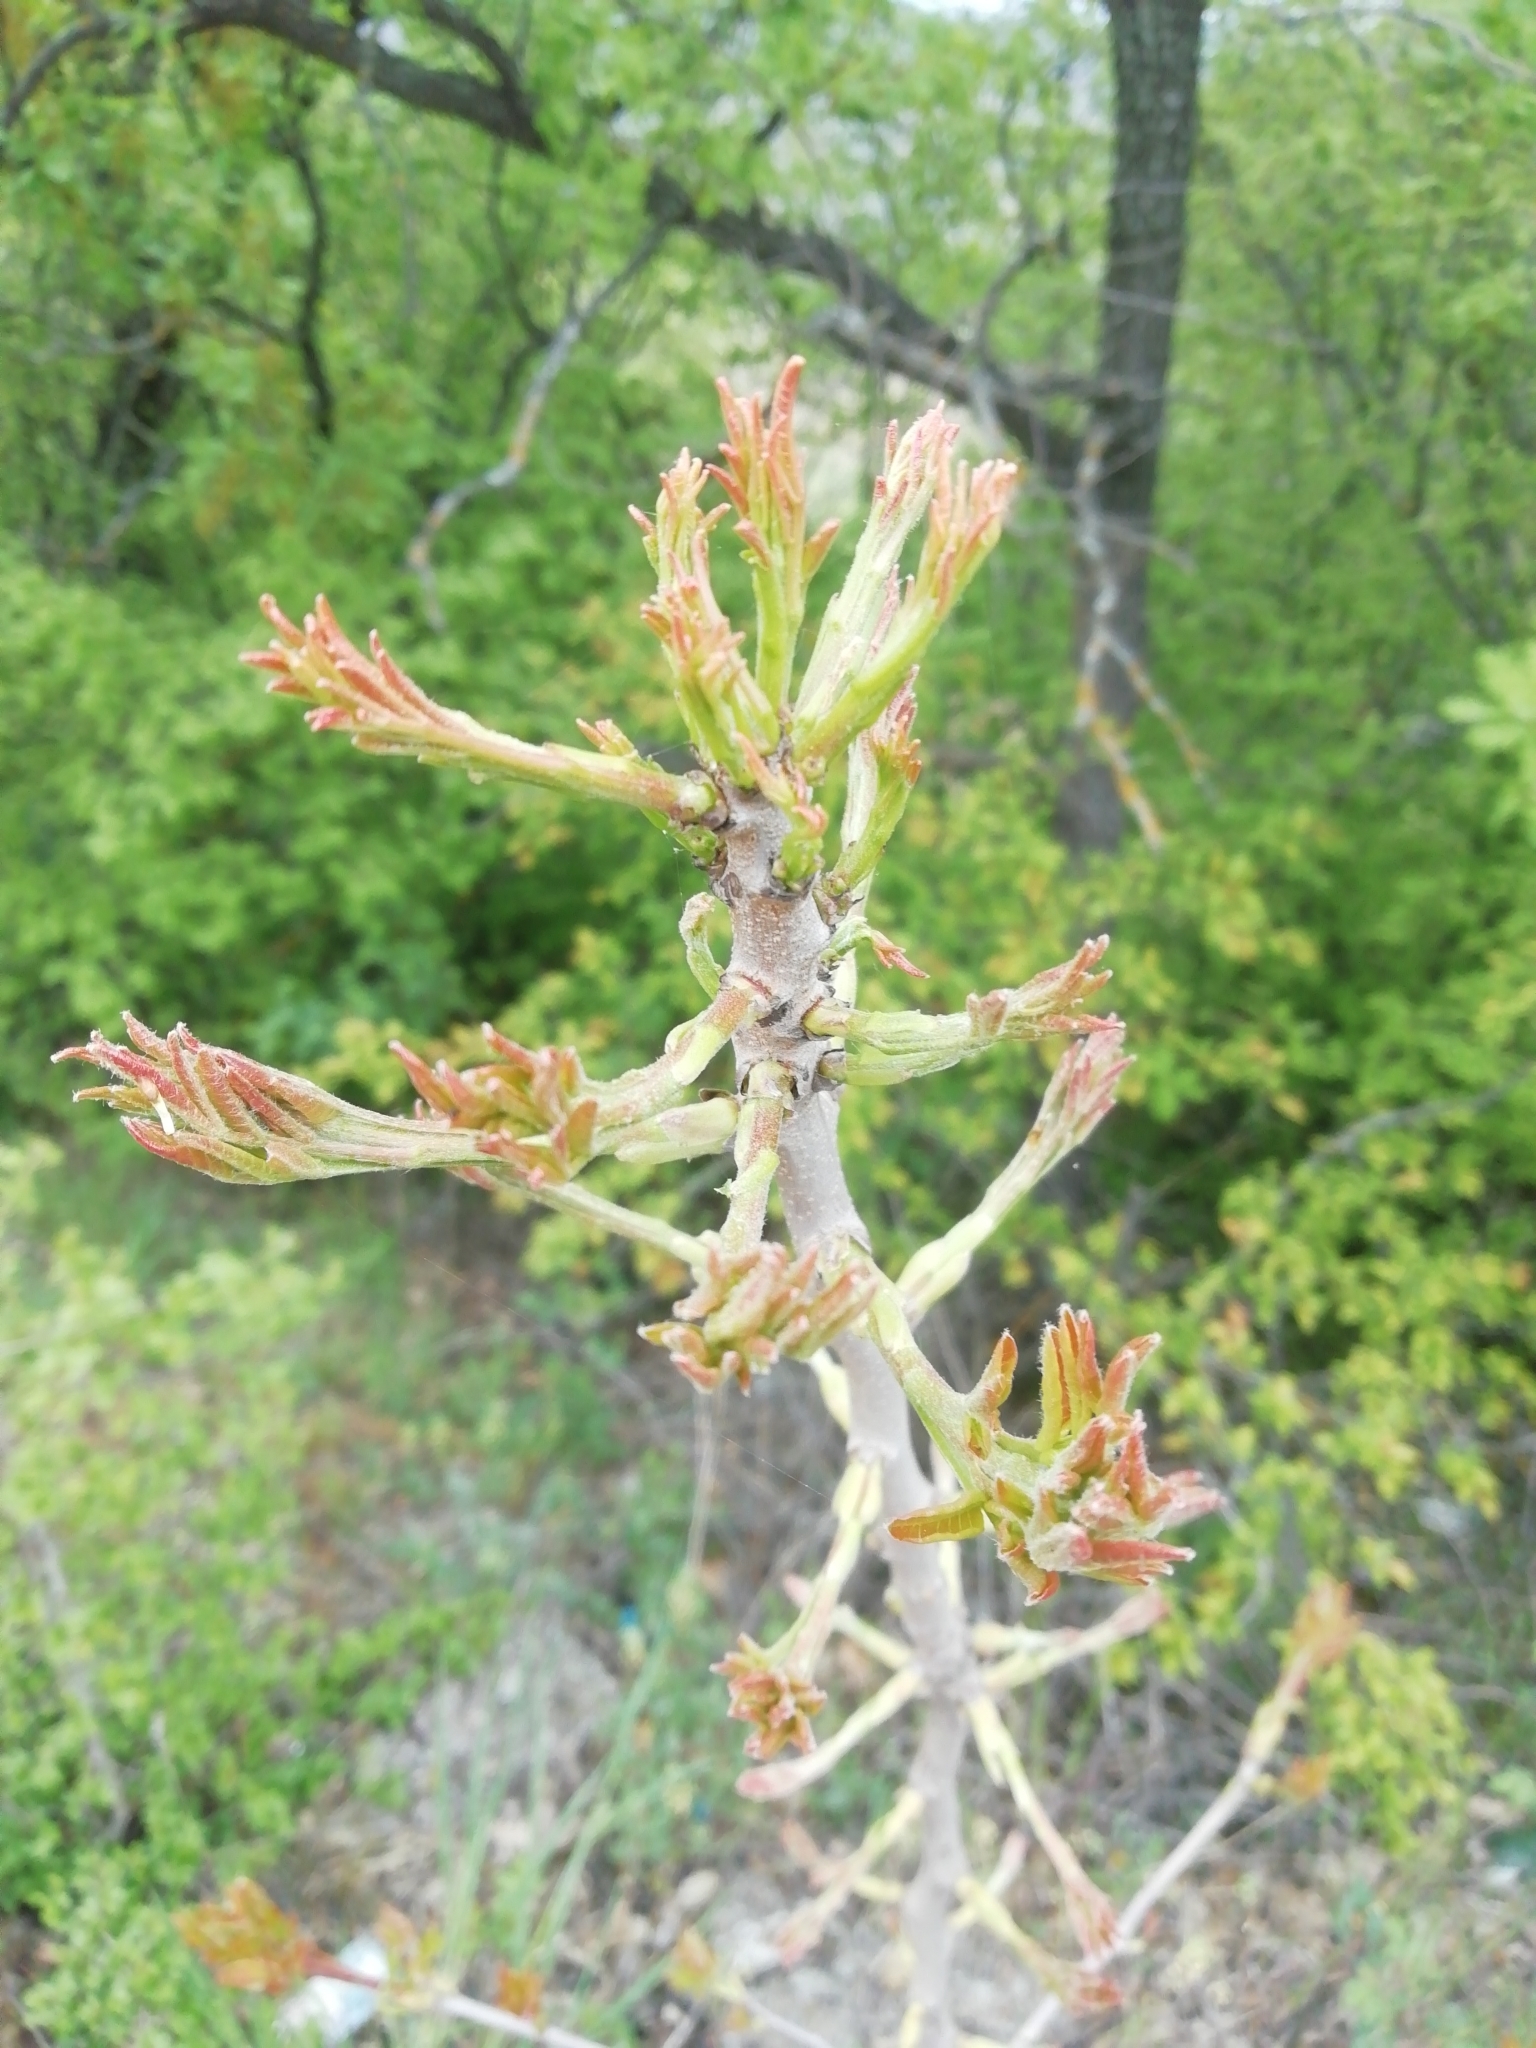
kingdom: Plantae
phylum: Tracheophyta
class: Magnoliopsida
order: Sapindales
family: Anacardiaceae
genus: Pistacia
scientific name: Pistacia atlantica
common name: Mt. atlas mastic tree
